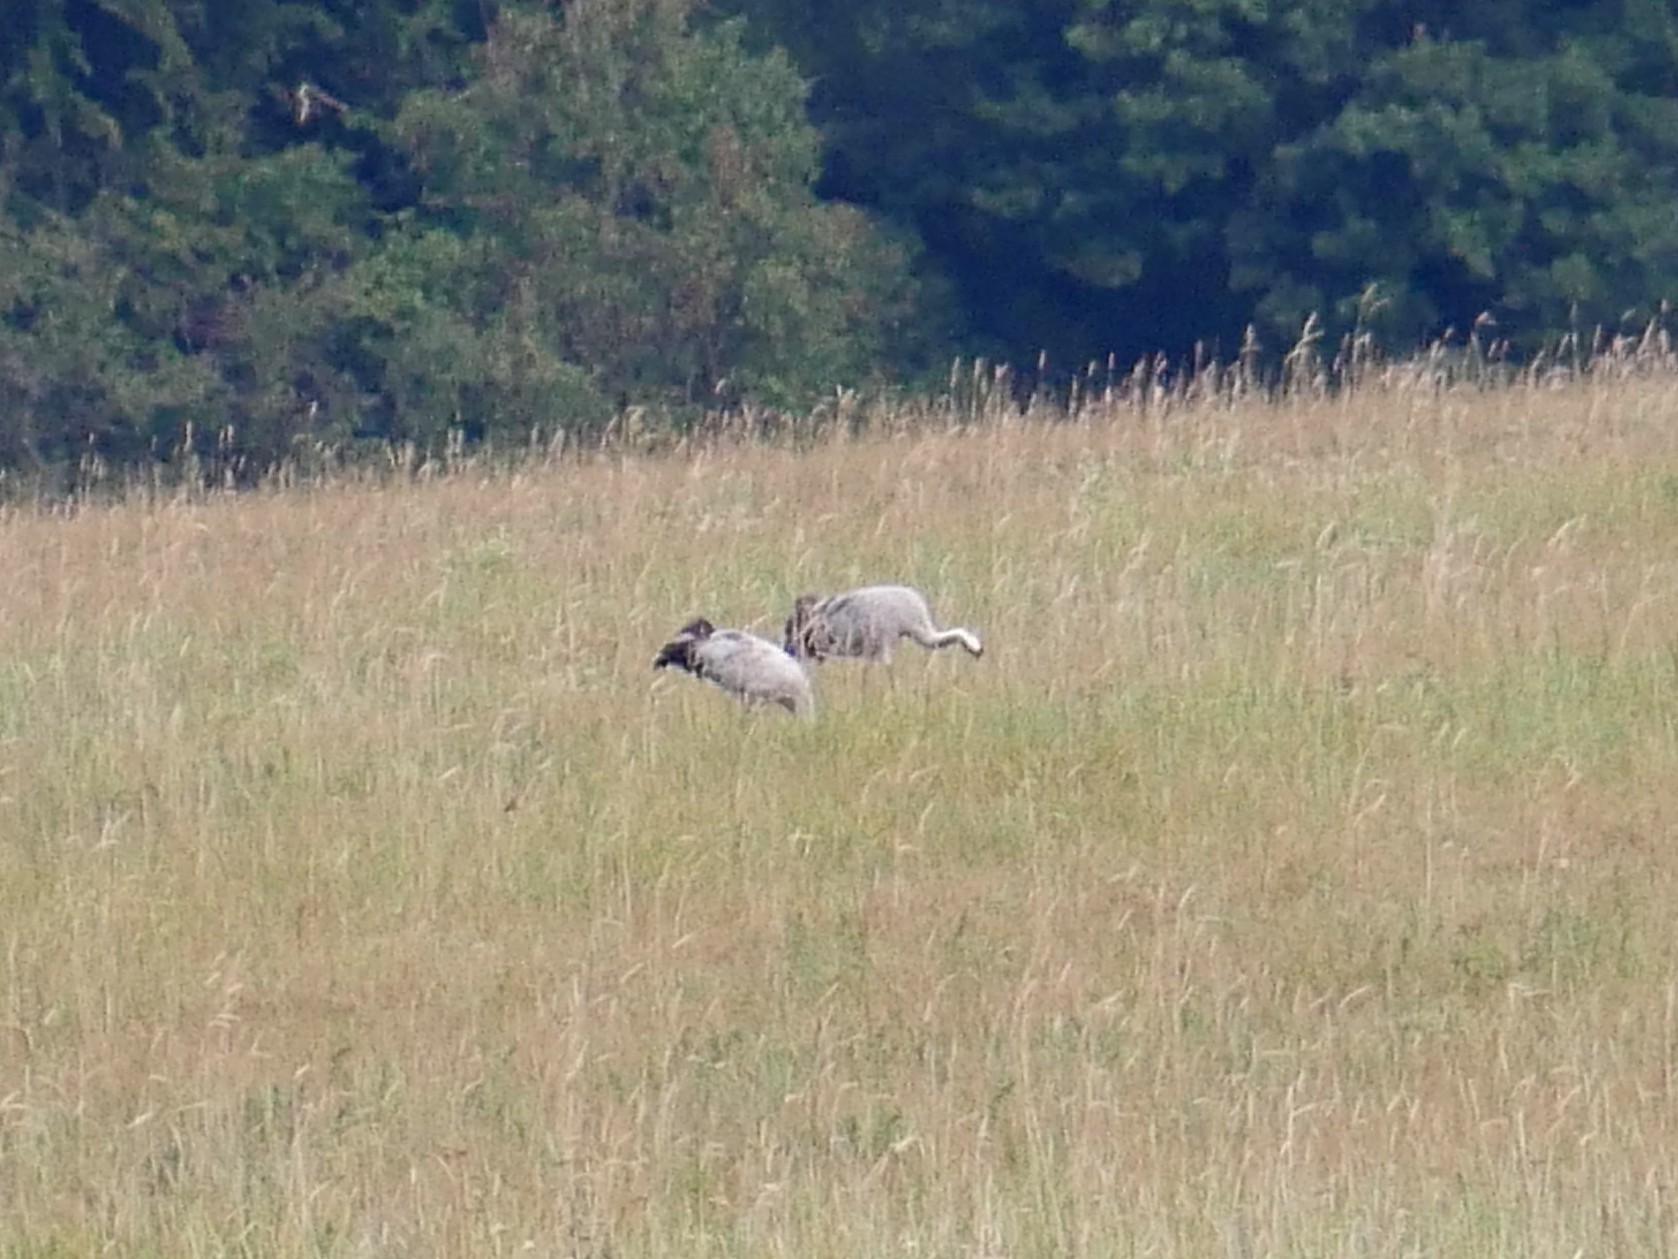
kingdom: Animalia
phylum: Chordata
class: Aves
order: Gruiformes
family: Gruidae
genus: Grus
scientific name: Grus grus
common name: Common crane
